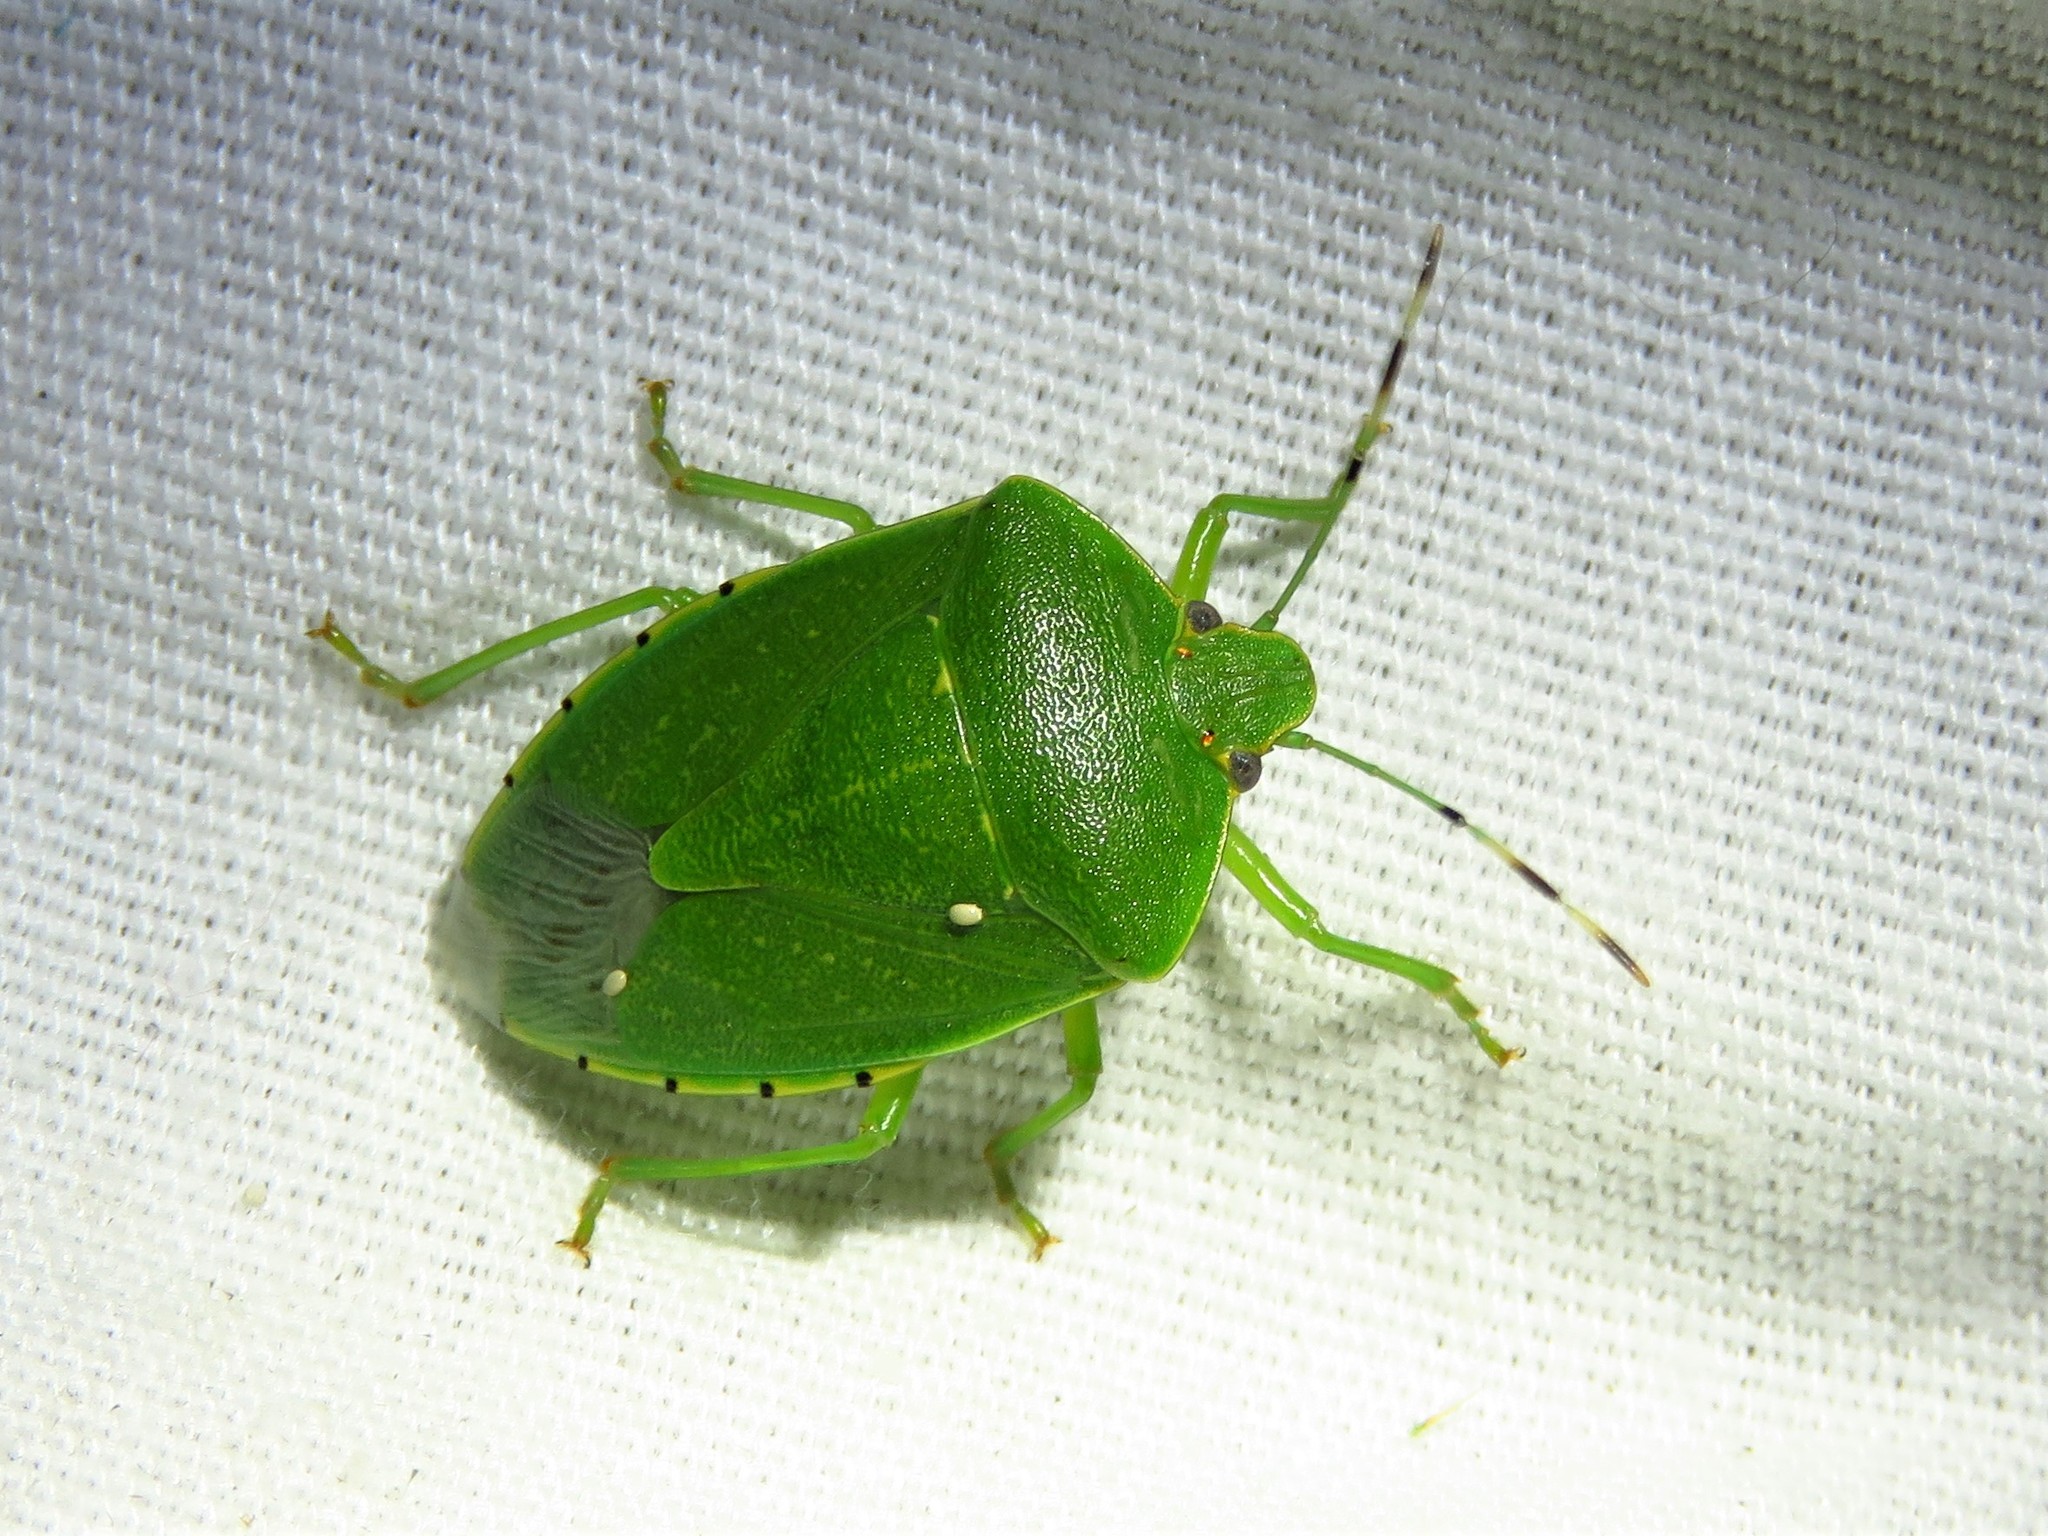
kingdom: Animalia
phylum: Arthropoda
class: Insecta
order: Hemiptera
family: Pentatomidae
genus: Chinavia
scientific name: Chinavia hilaris
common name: Green stink bug
